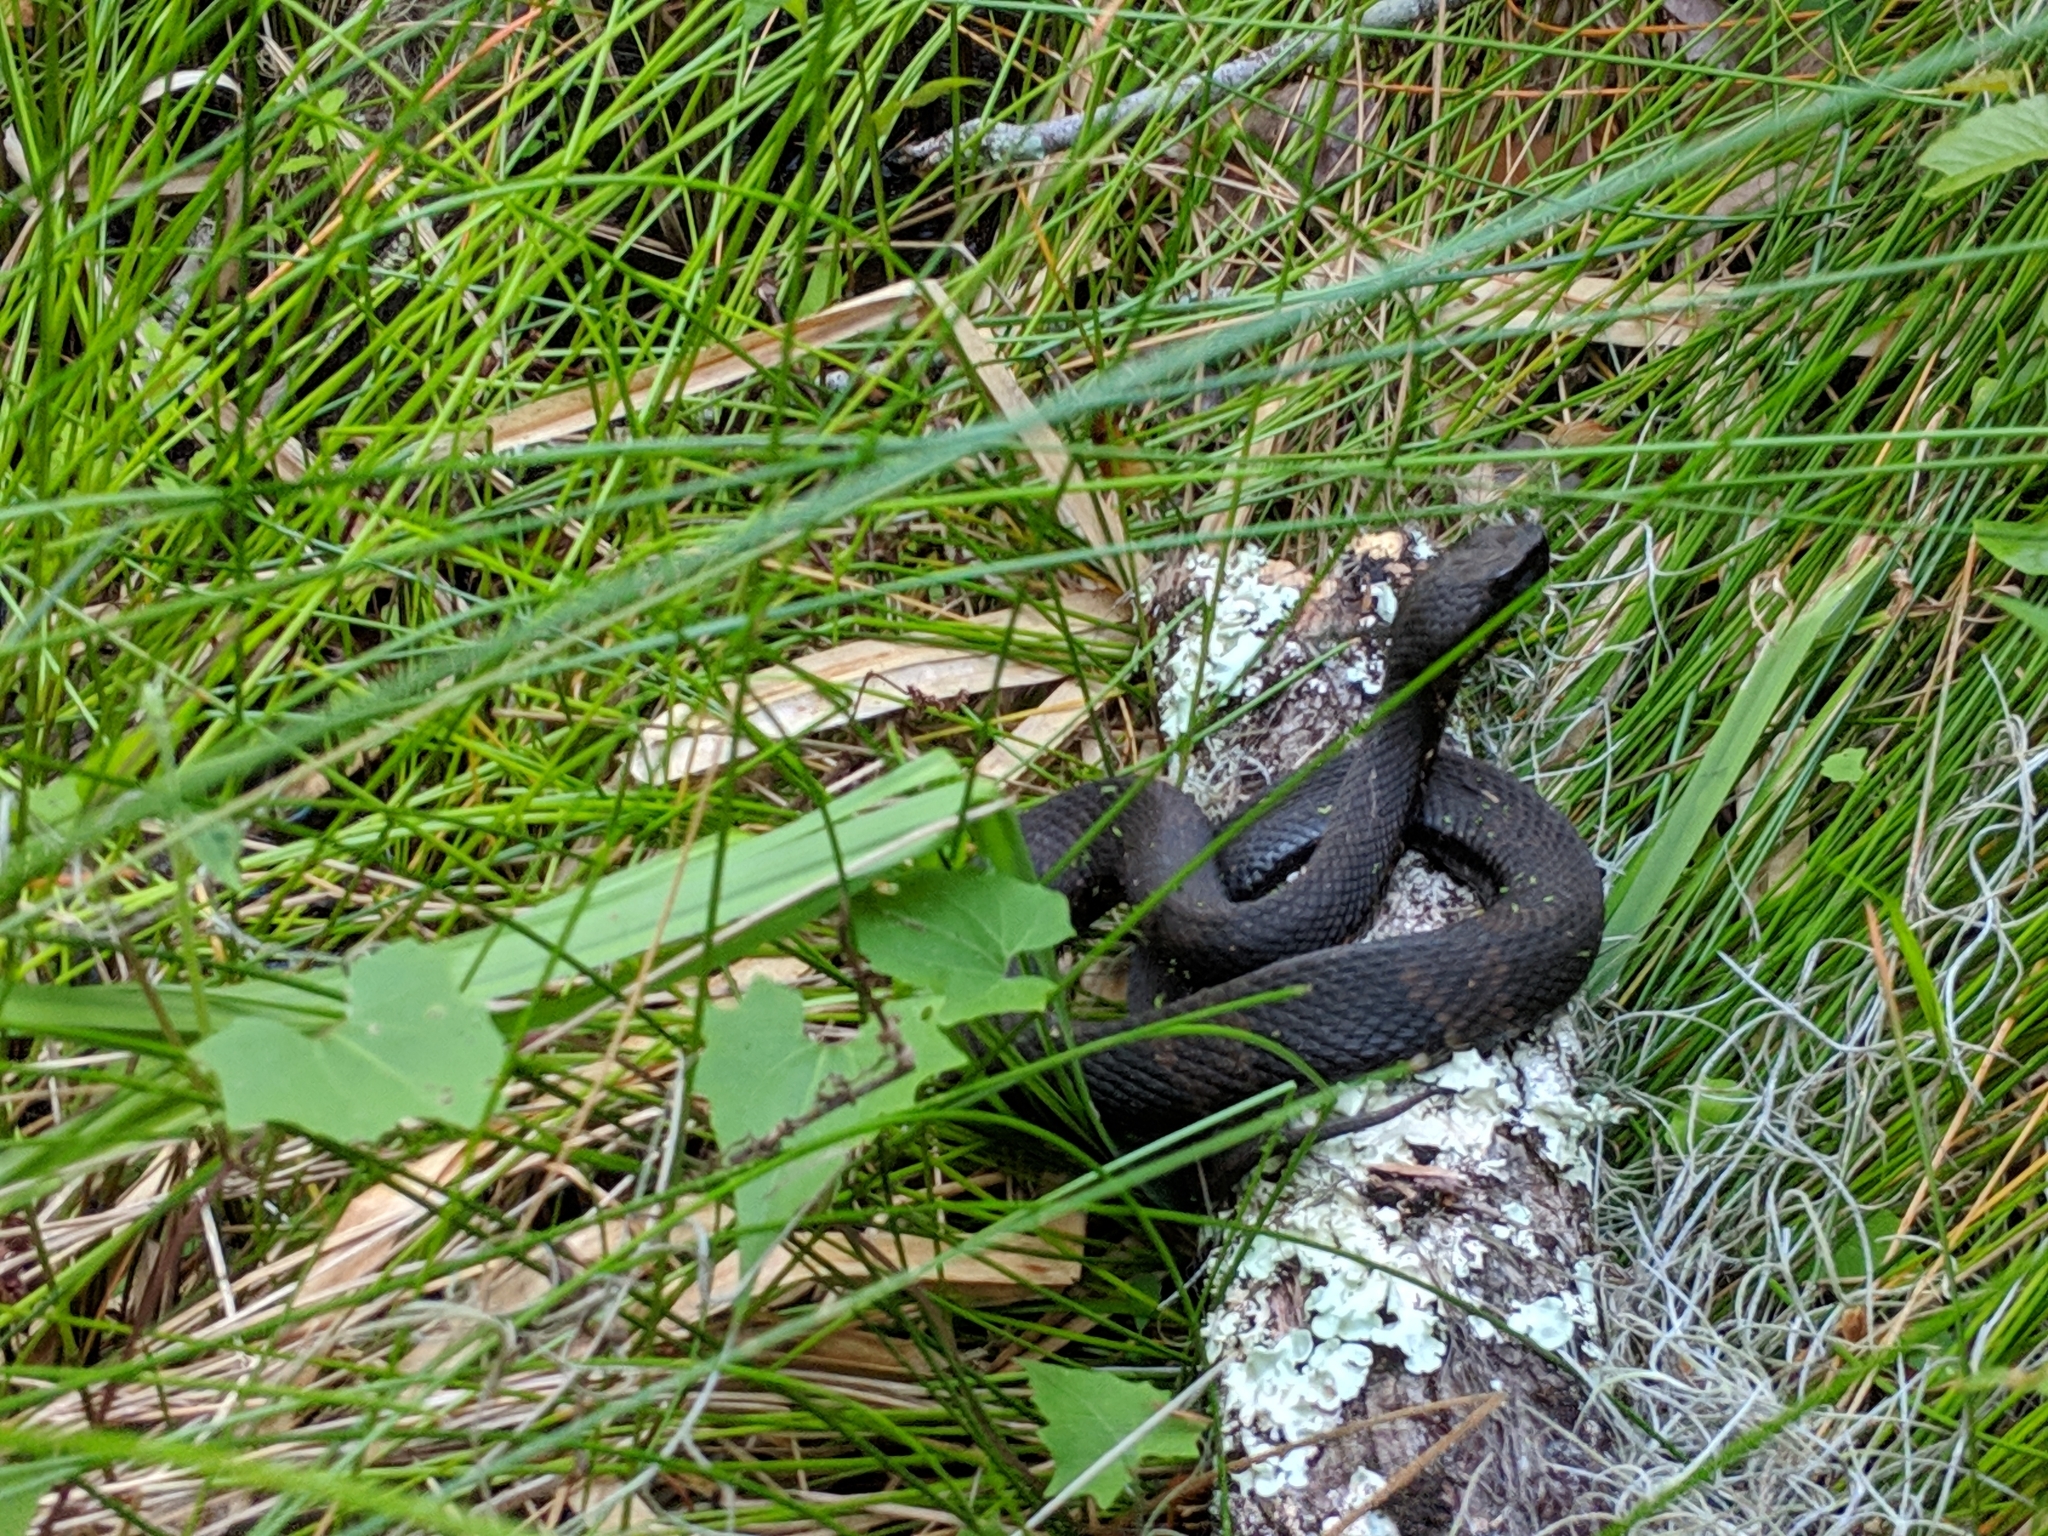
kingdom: Animalia
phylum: Chordata
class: Squamata
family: Viperidae
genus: Agkistrodon
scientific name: Agkistrodon piscivorus
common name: Cottonmouth
